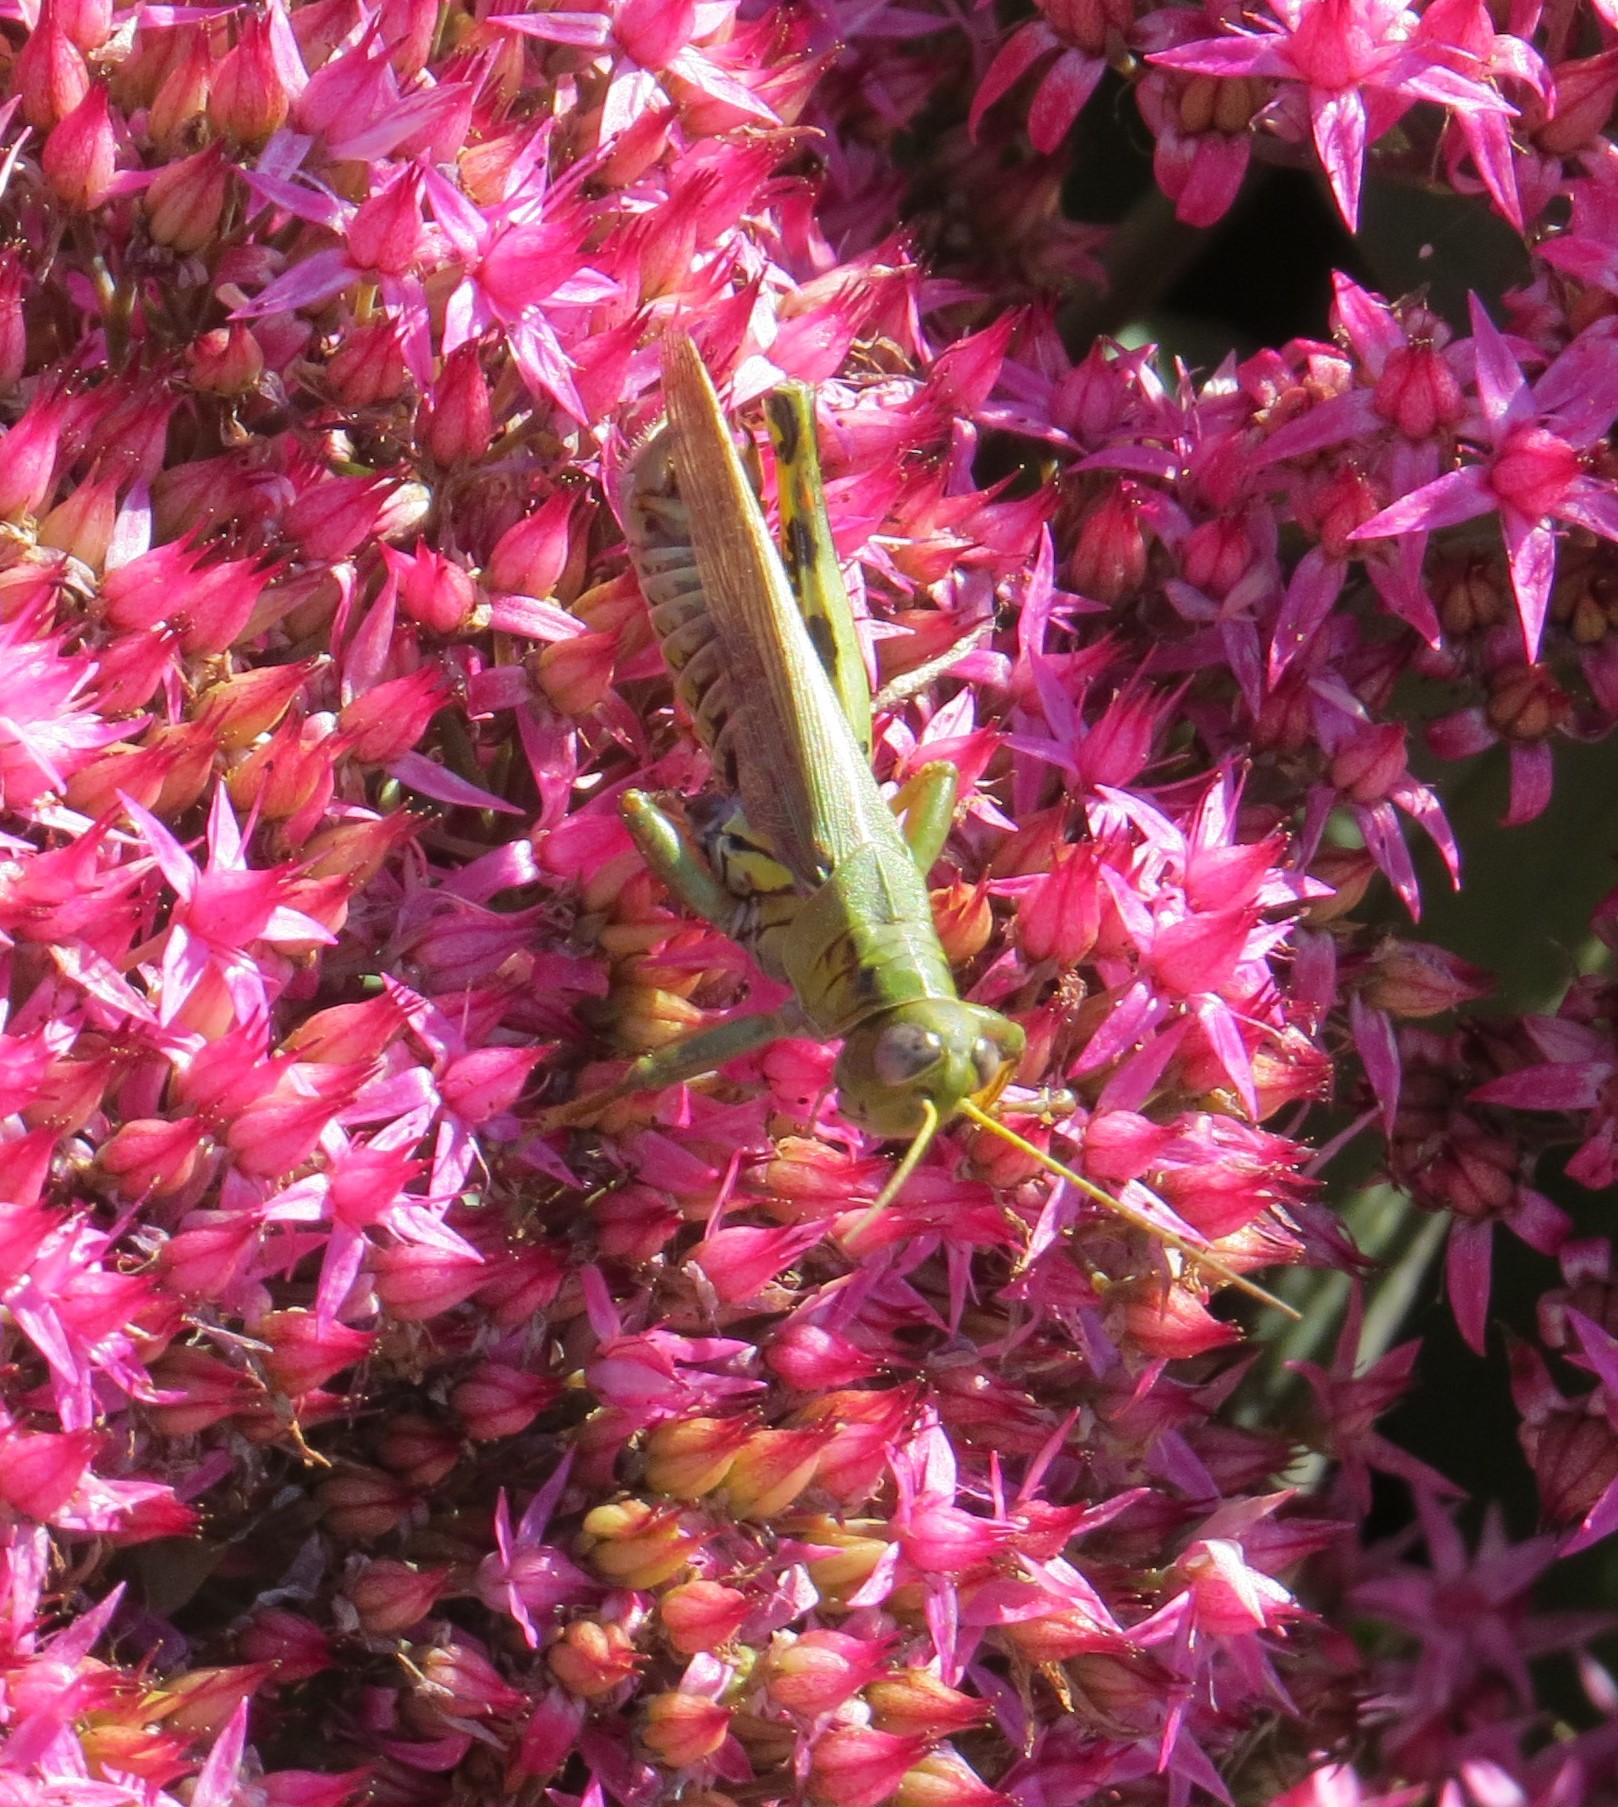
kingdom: Animalia
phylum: Arthropoda
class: Insecta
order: Orthoptera
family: Acrididae
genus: Melanoplus
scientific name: Melanoplus differentialis
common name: Differential grasshopper
